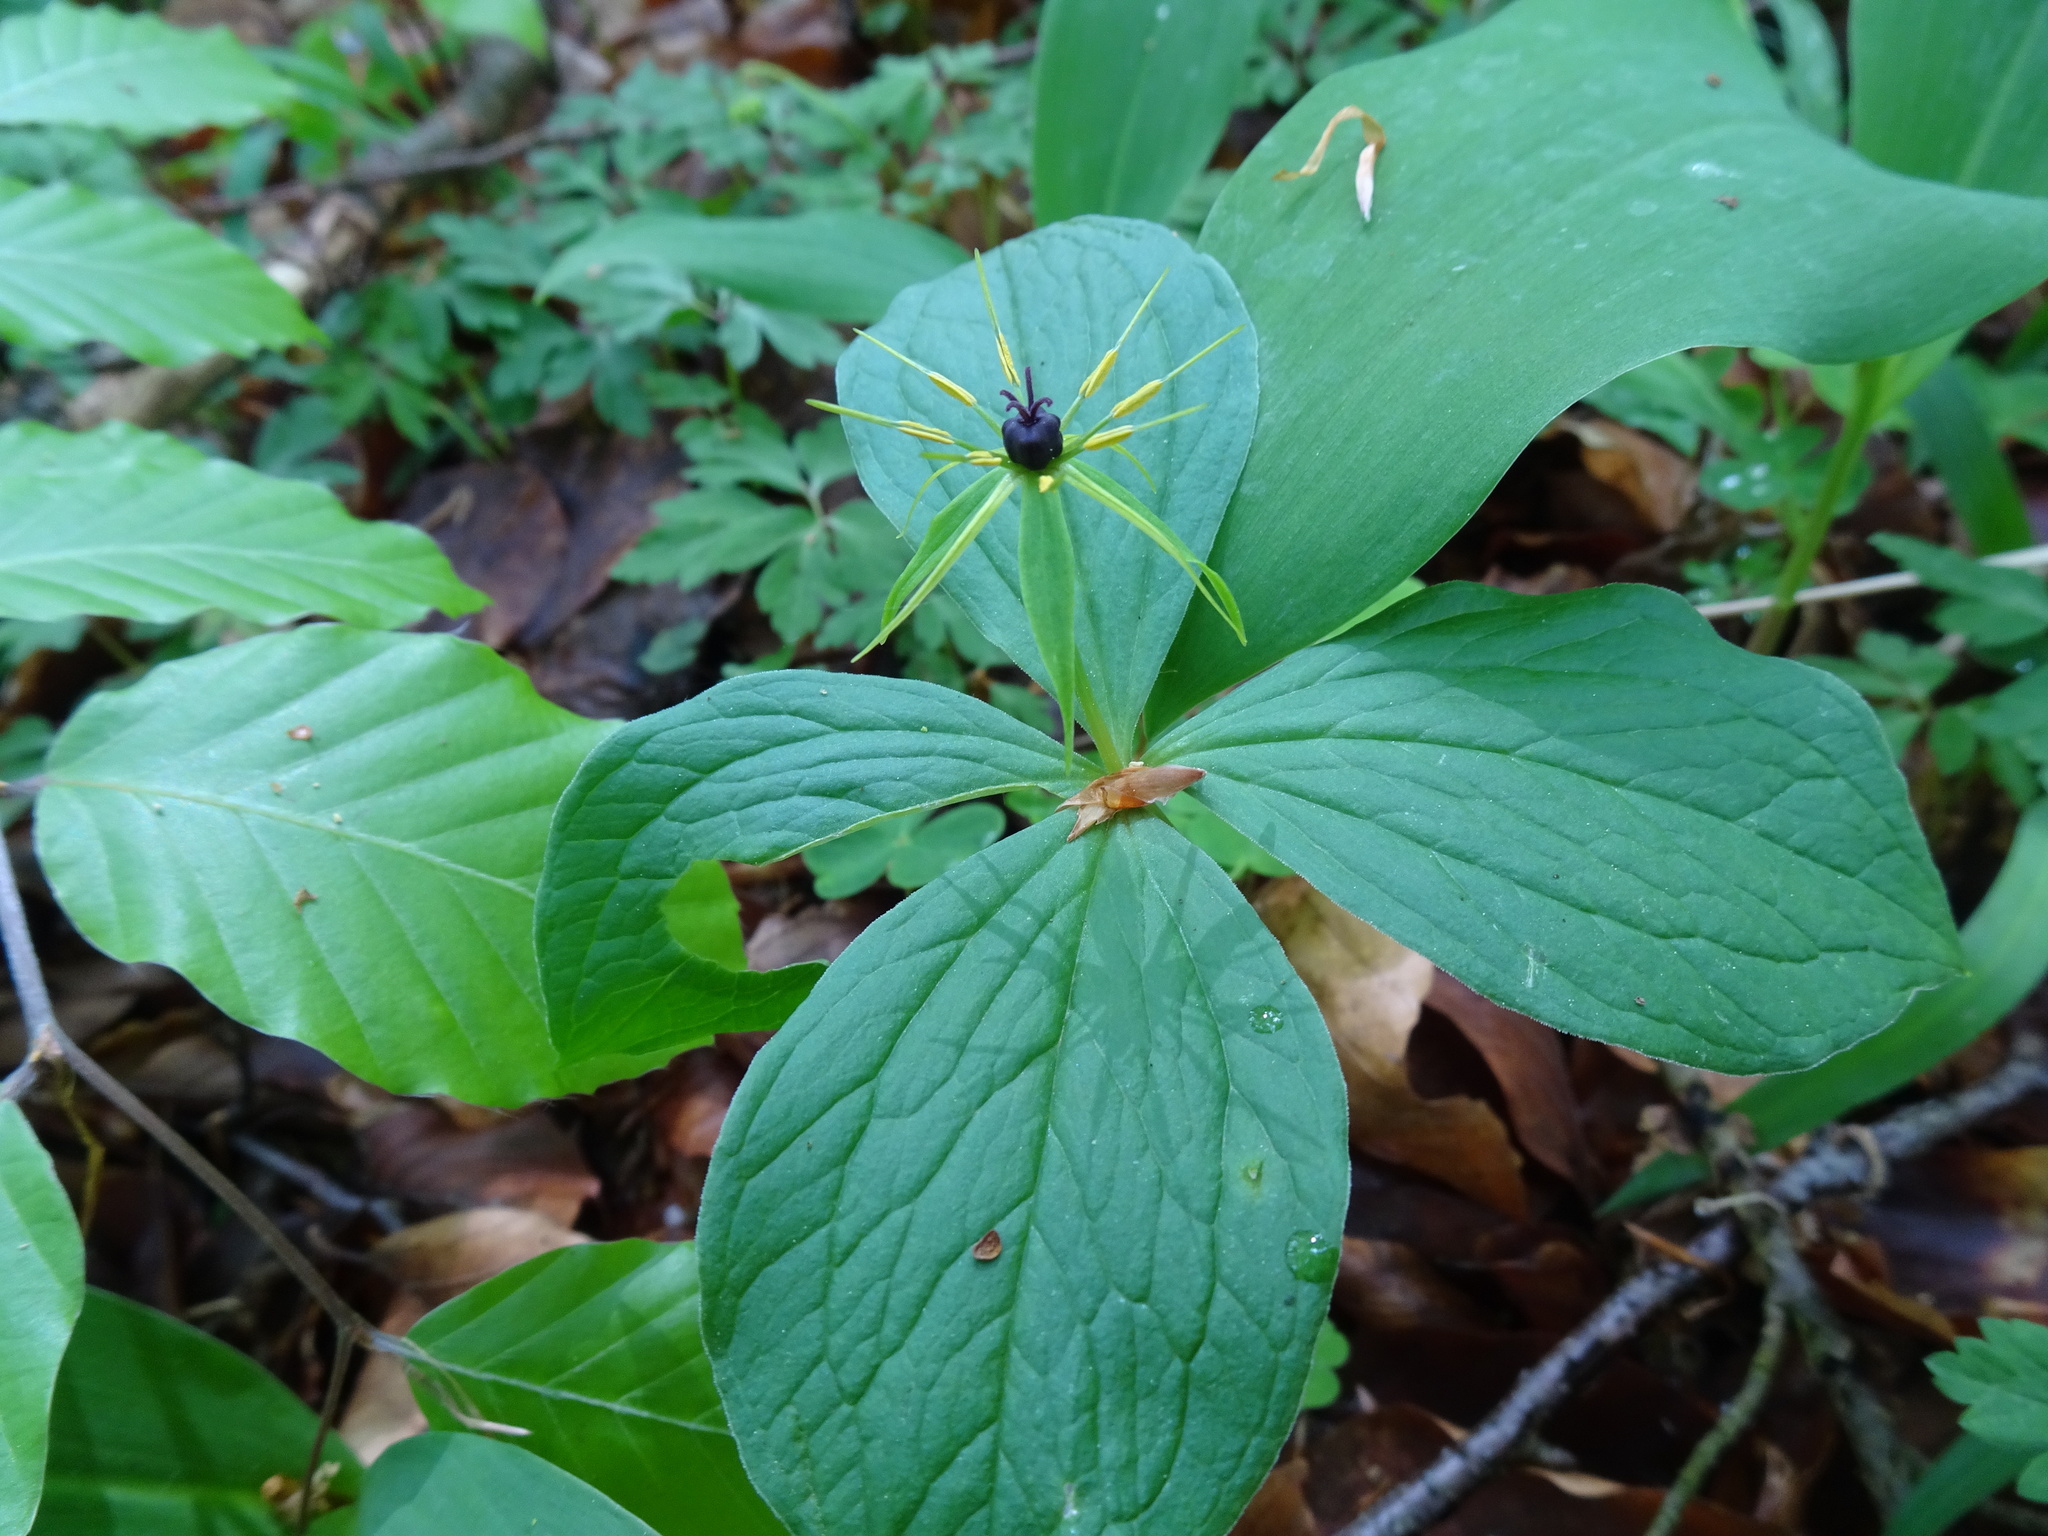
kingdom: Plantae
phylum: Tracheophyta
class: Liliopsida
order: Liliales
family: Melanthiaceae
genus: Paris
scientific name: Paris quadrifolia
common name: Herb-paris
